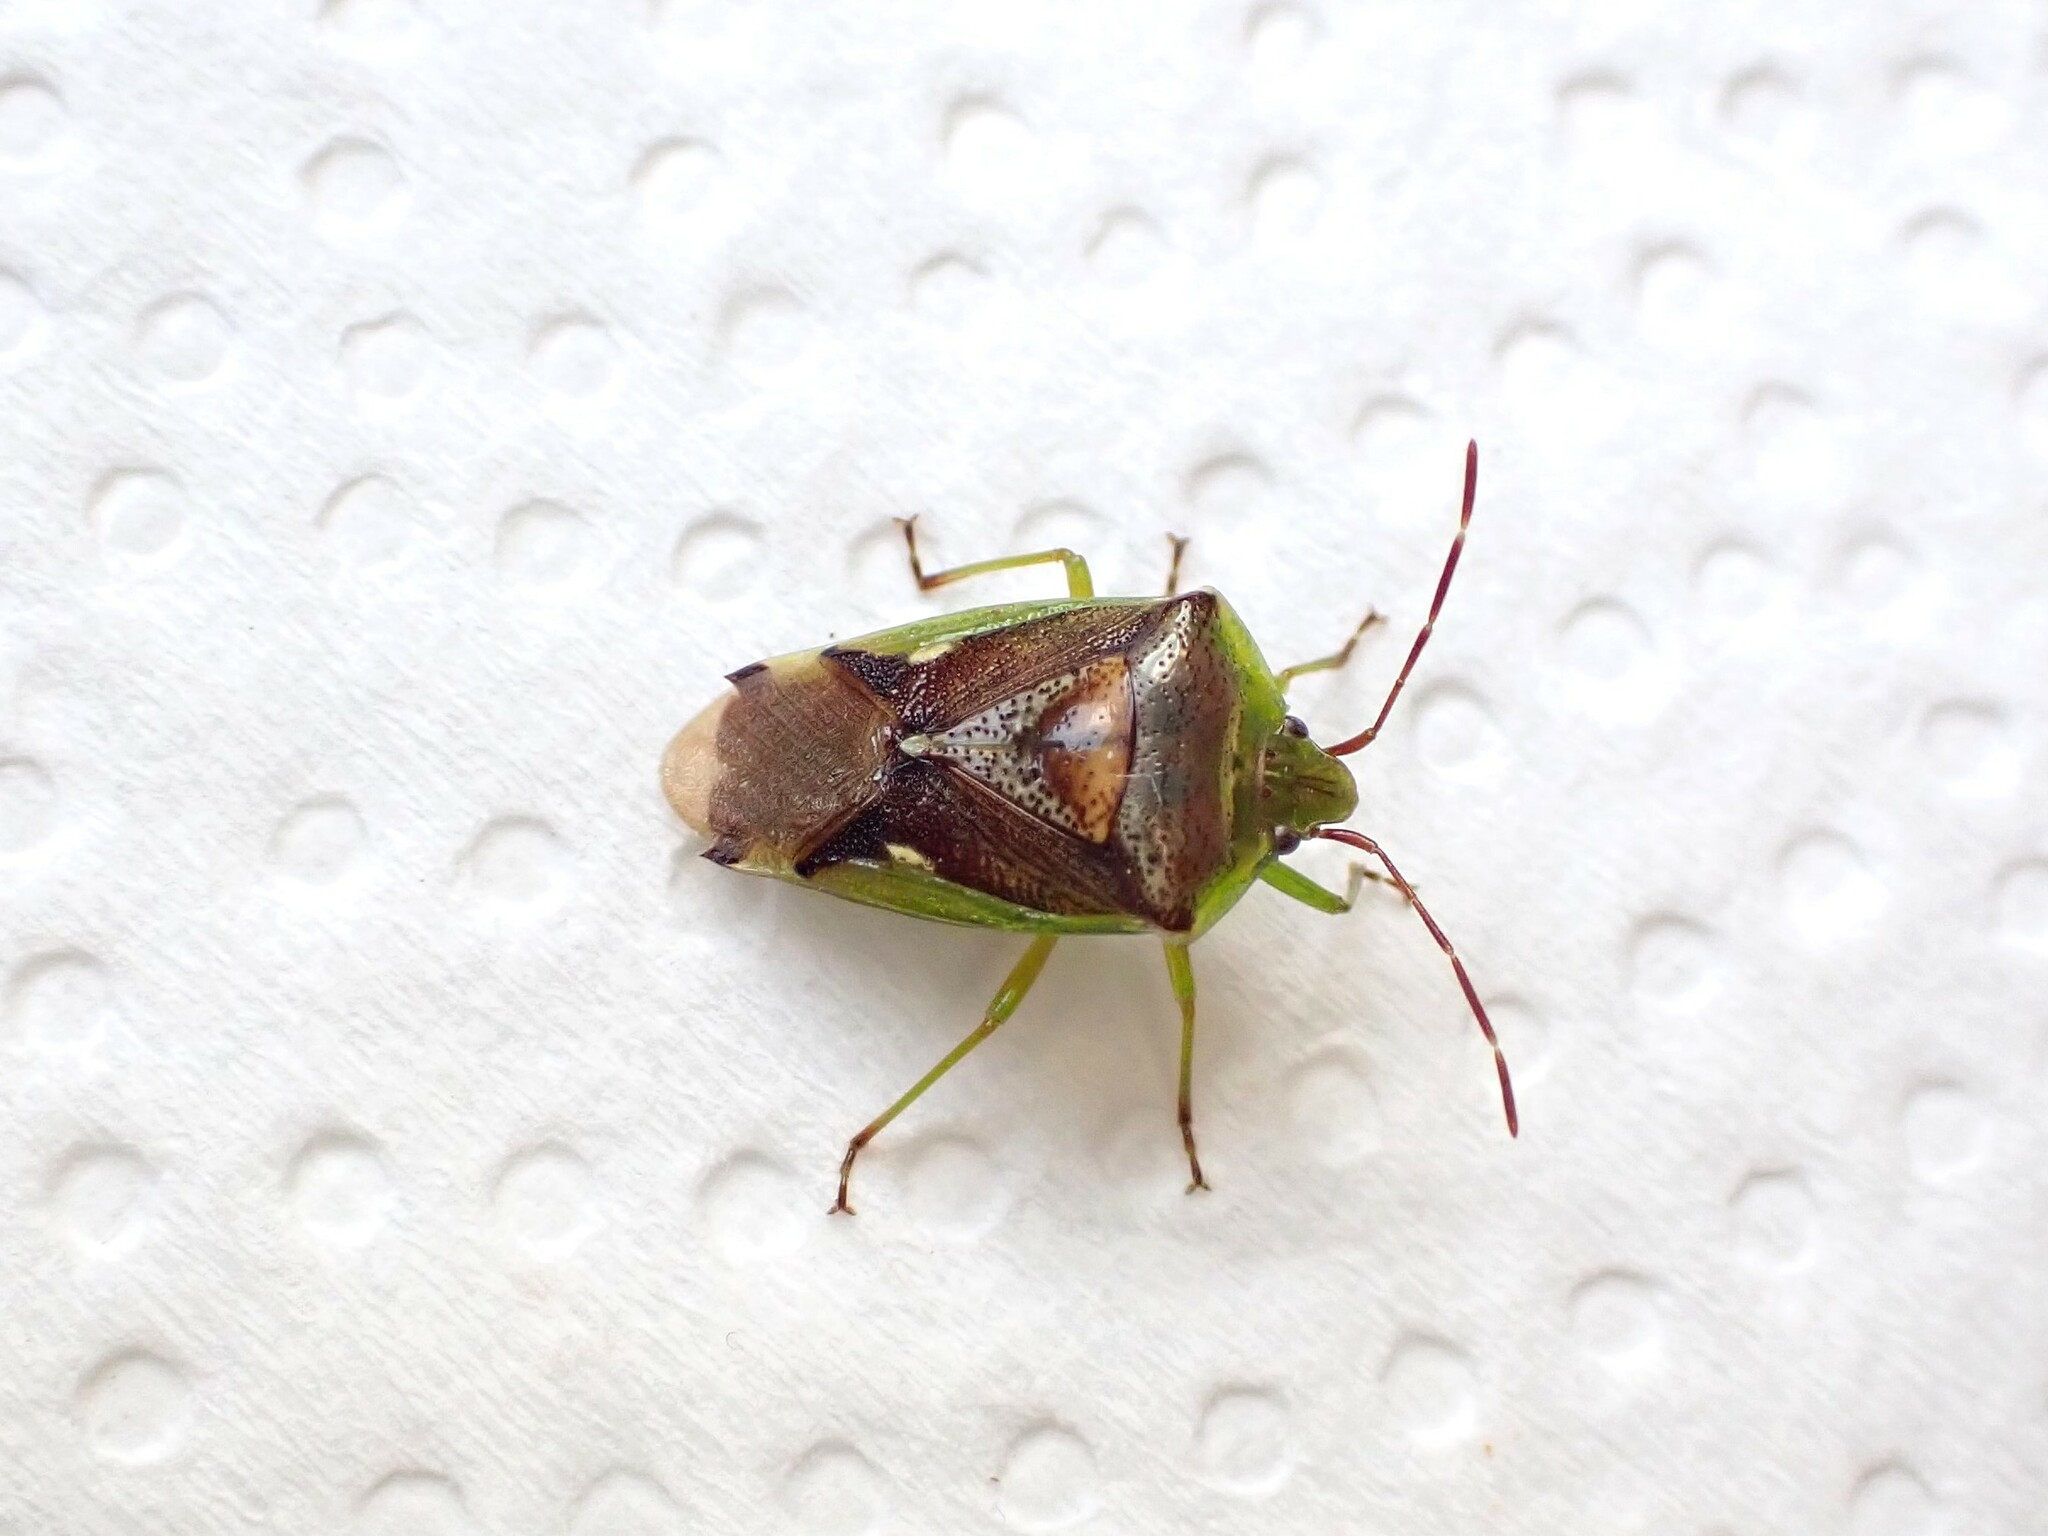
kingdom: Animalia
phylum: Arthropoda
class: Insecta
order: Hemiptera
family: Acanthosomatidae
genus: Oncacontias
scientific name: Oncacontias vittatus
